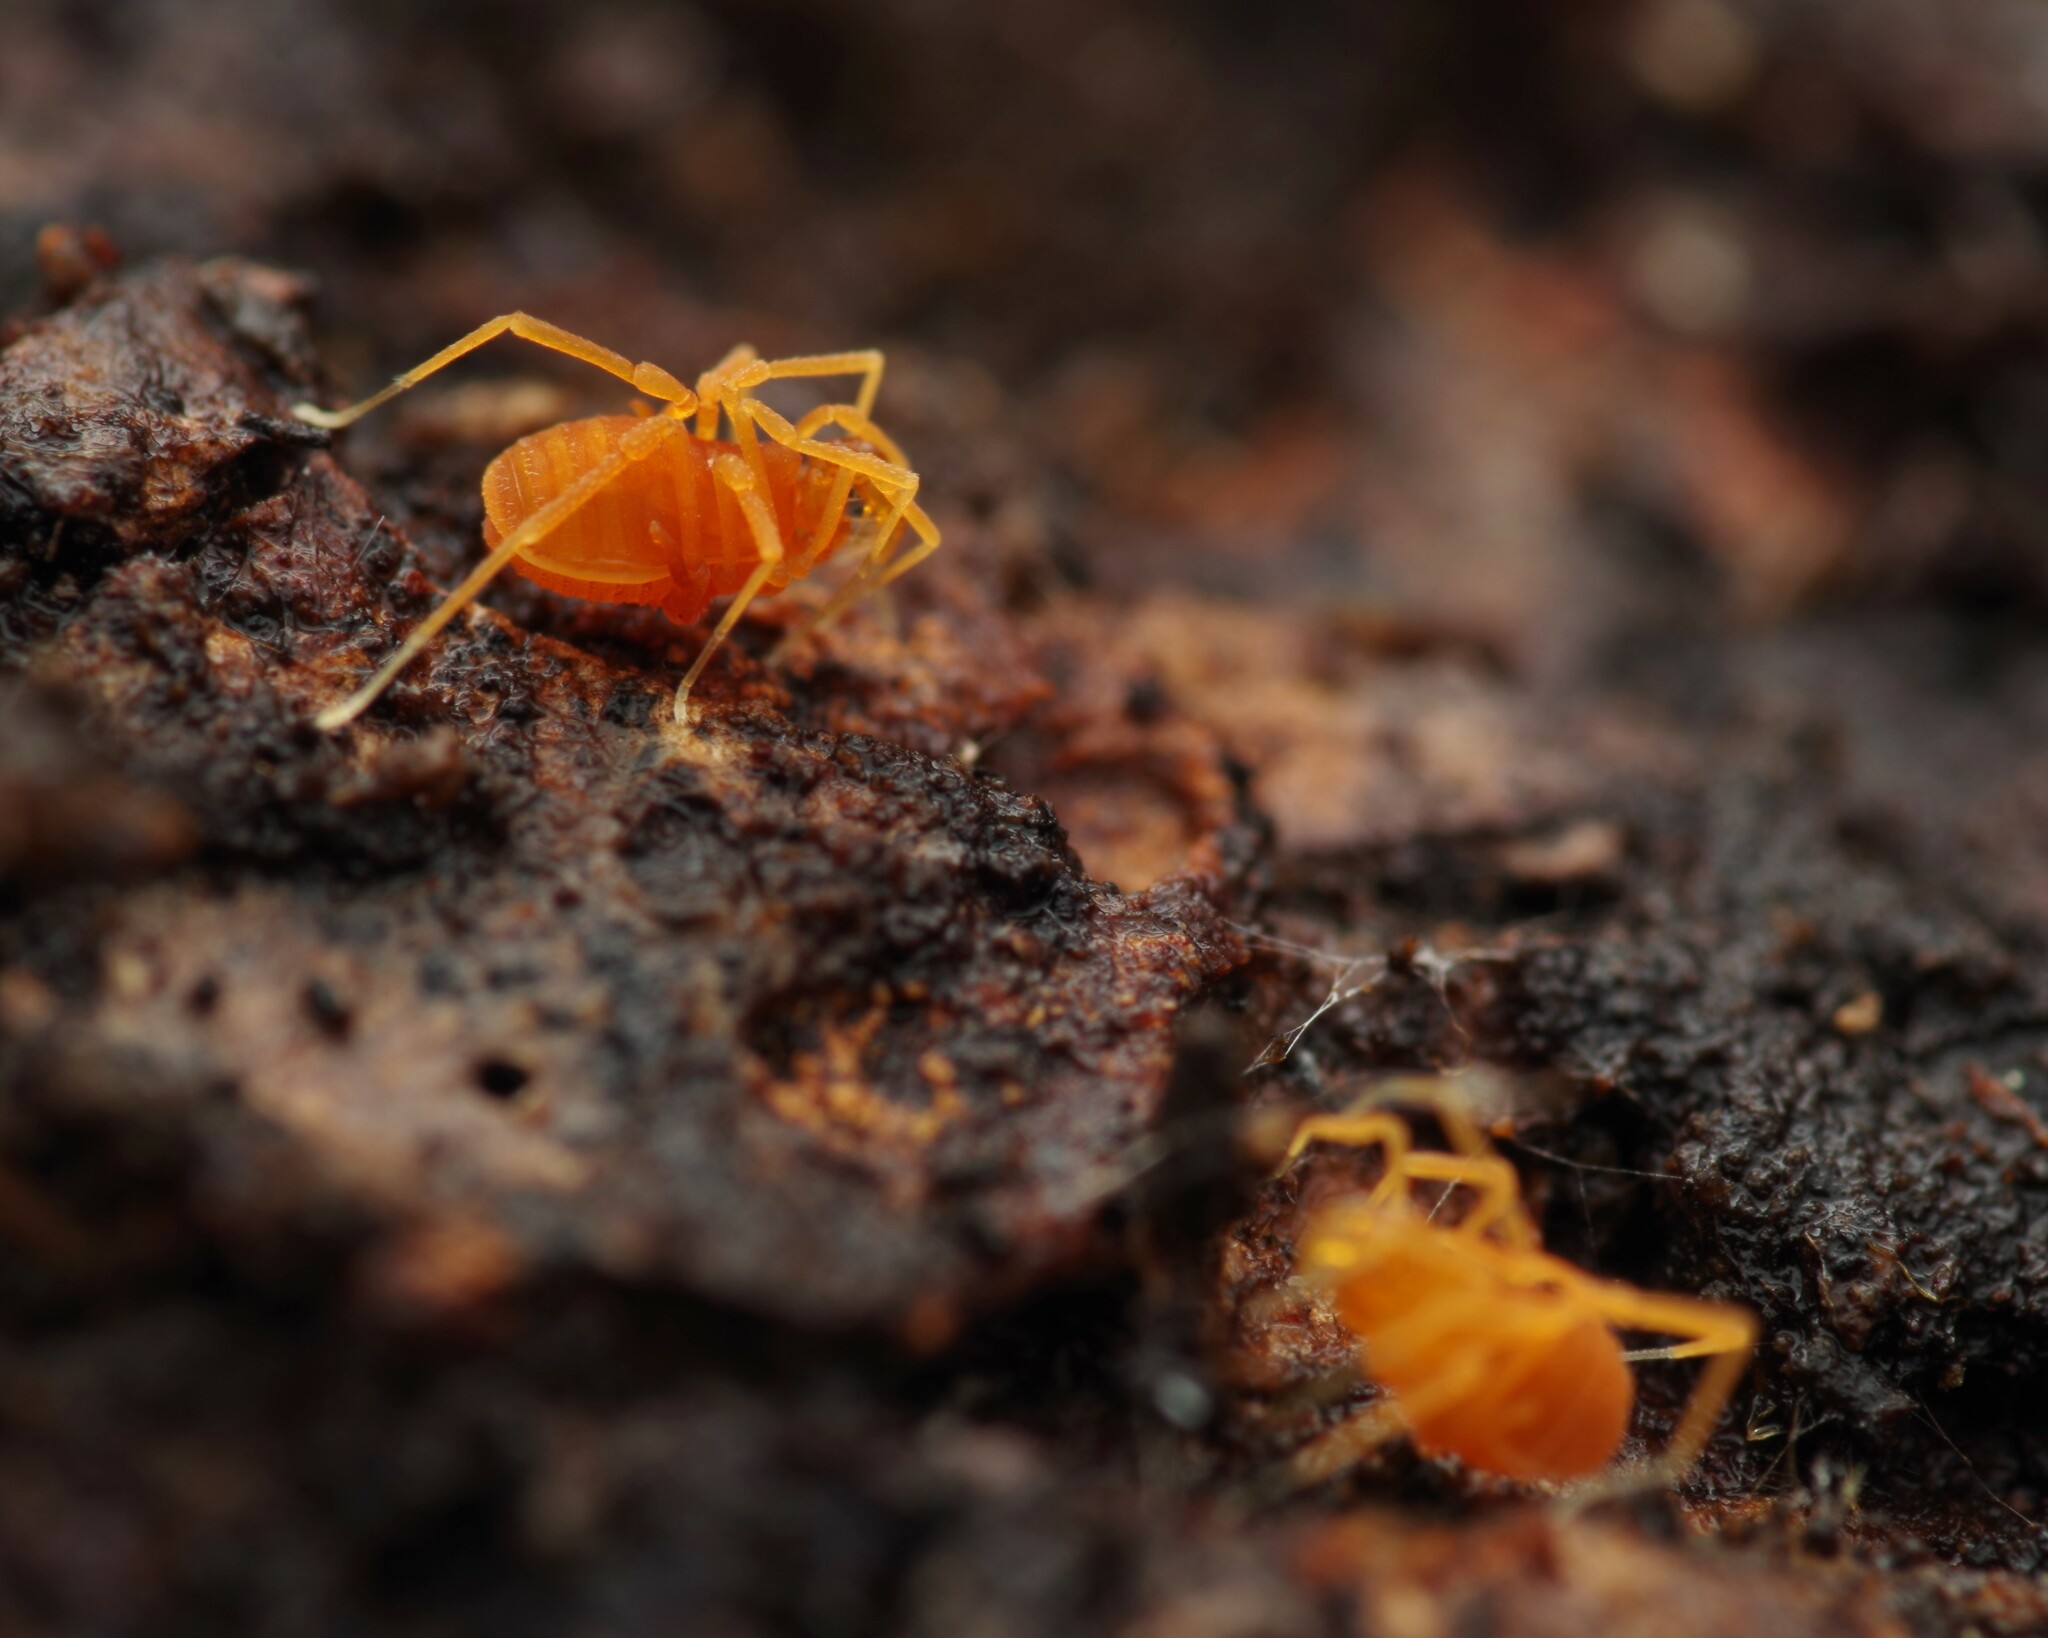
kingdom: Animalia
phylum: Arthropoda
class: Arachnida
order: Opiliones
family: Phalangodidae
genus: Scotolemon
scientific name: Scotolemon doriae
